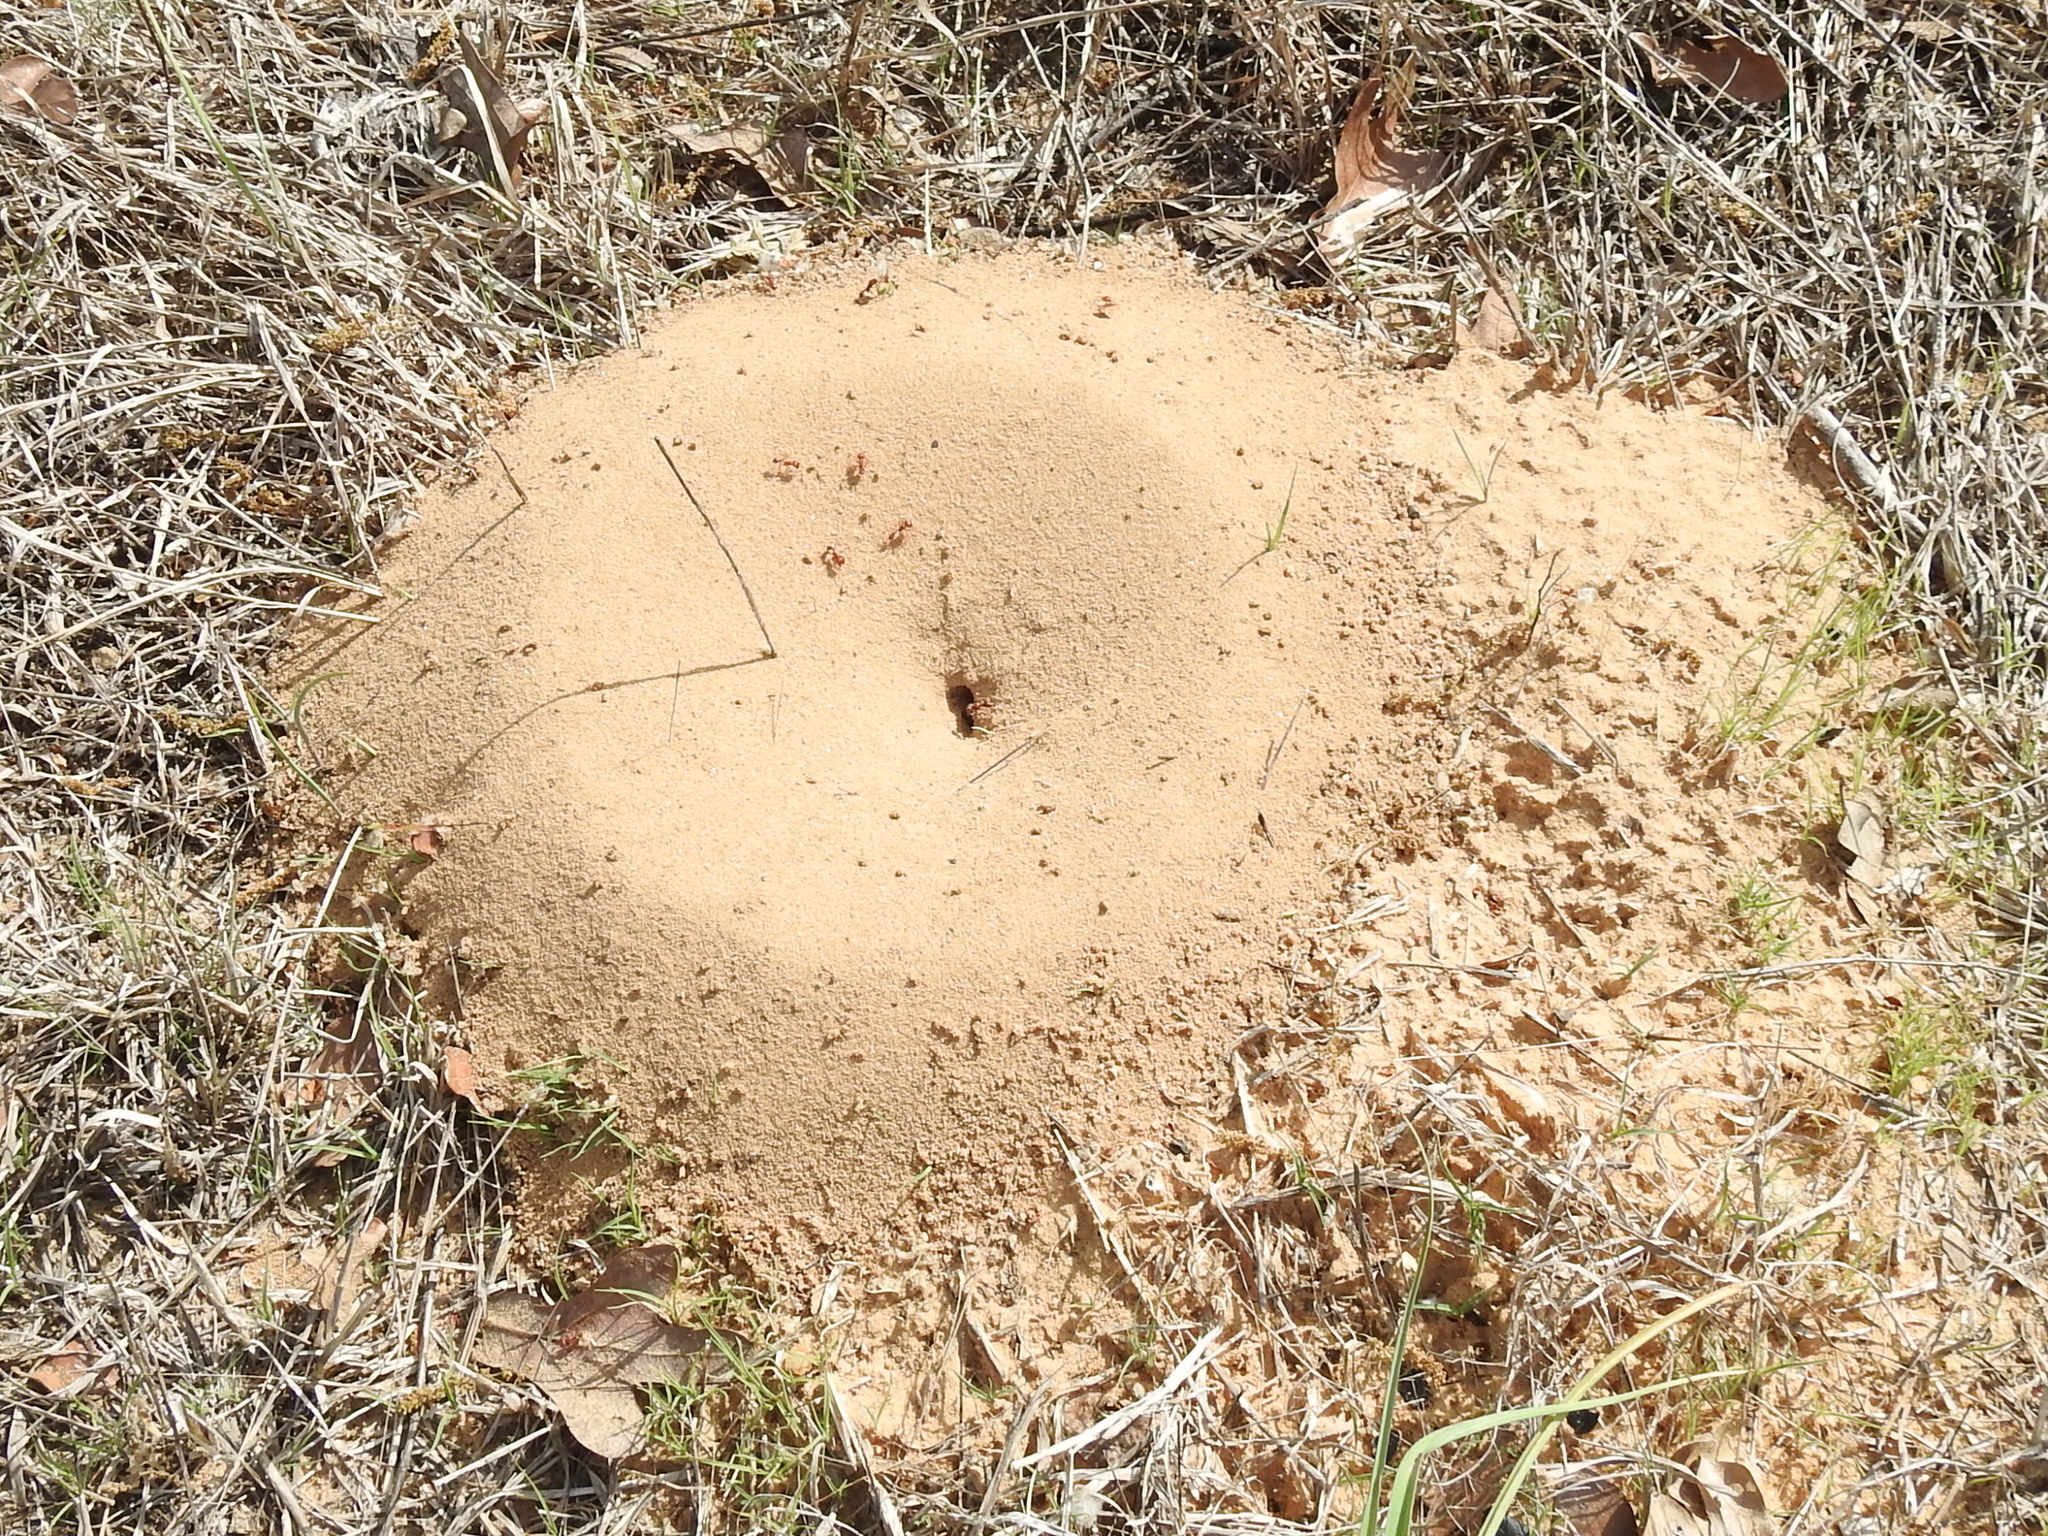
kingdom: Animalia
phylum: Arthropoda
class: Insecta
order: Hymenoptera
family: Formicidae
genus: Pogonomyrmex
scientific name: Pogonomyrmex comanche
